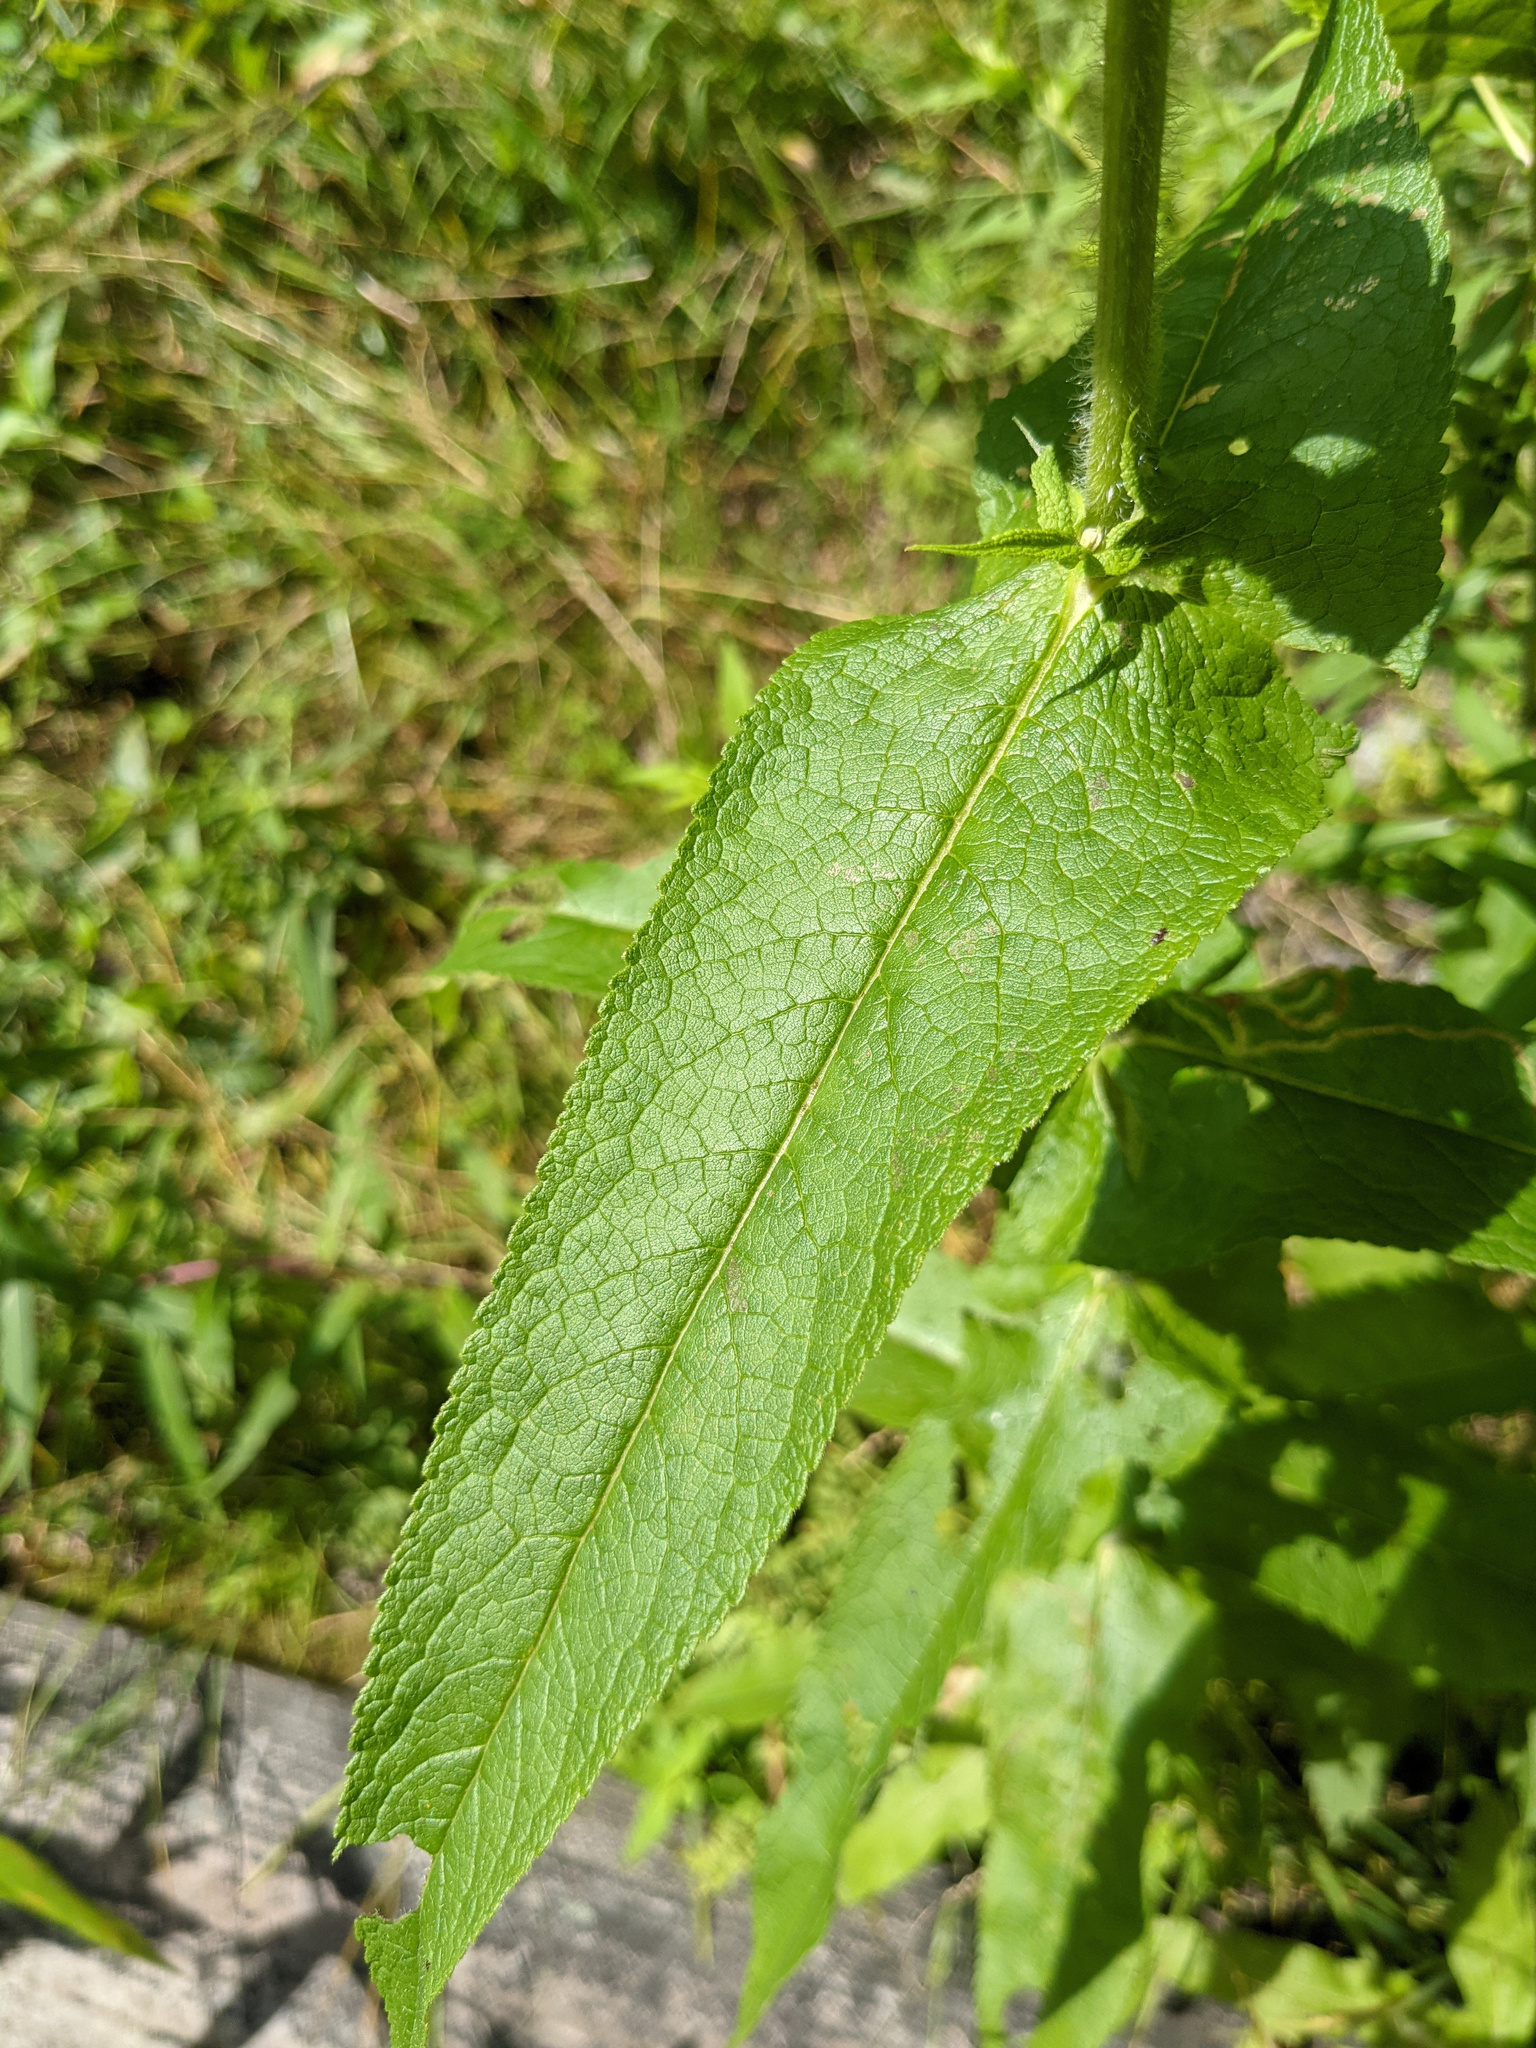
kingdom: Plantae
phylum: Tracheophyta
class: Magnoliopsida
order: Asterales
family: Asteraceae
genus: Eupatorium
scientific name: Eupatorium perfoliatum
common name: Boneset
